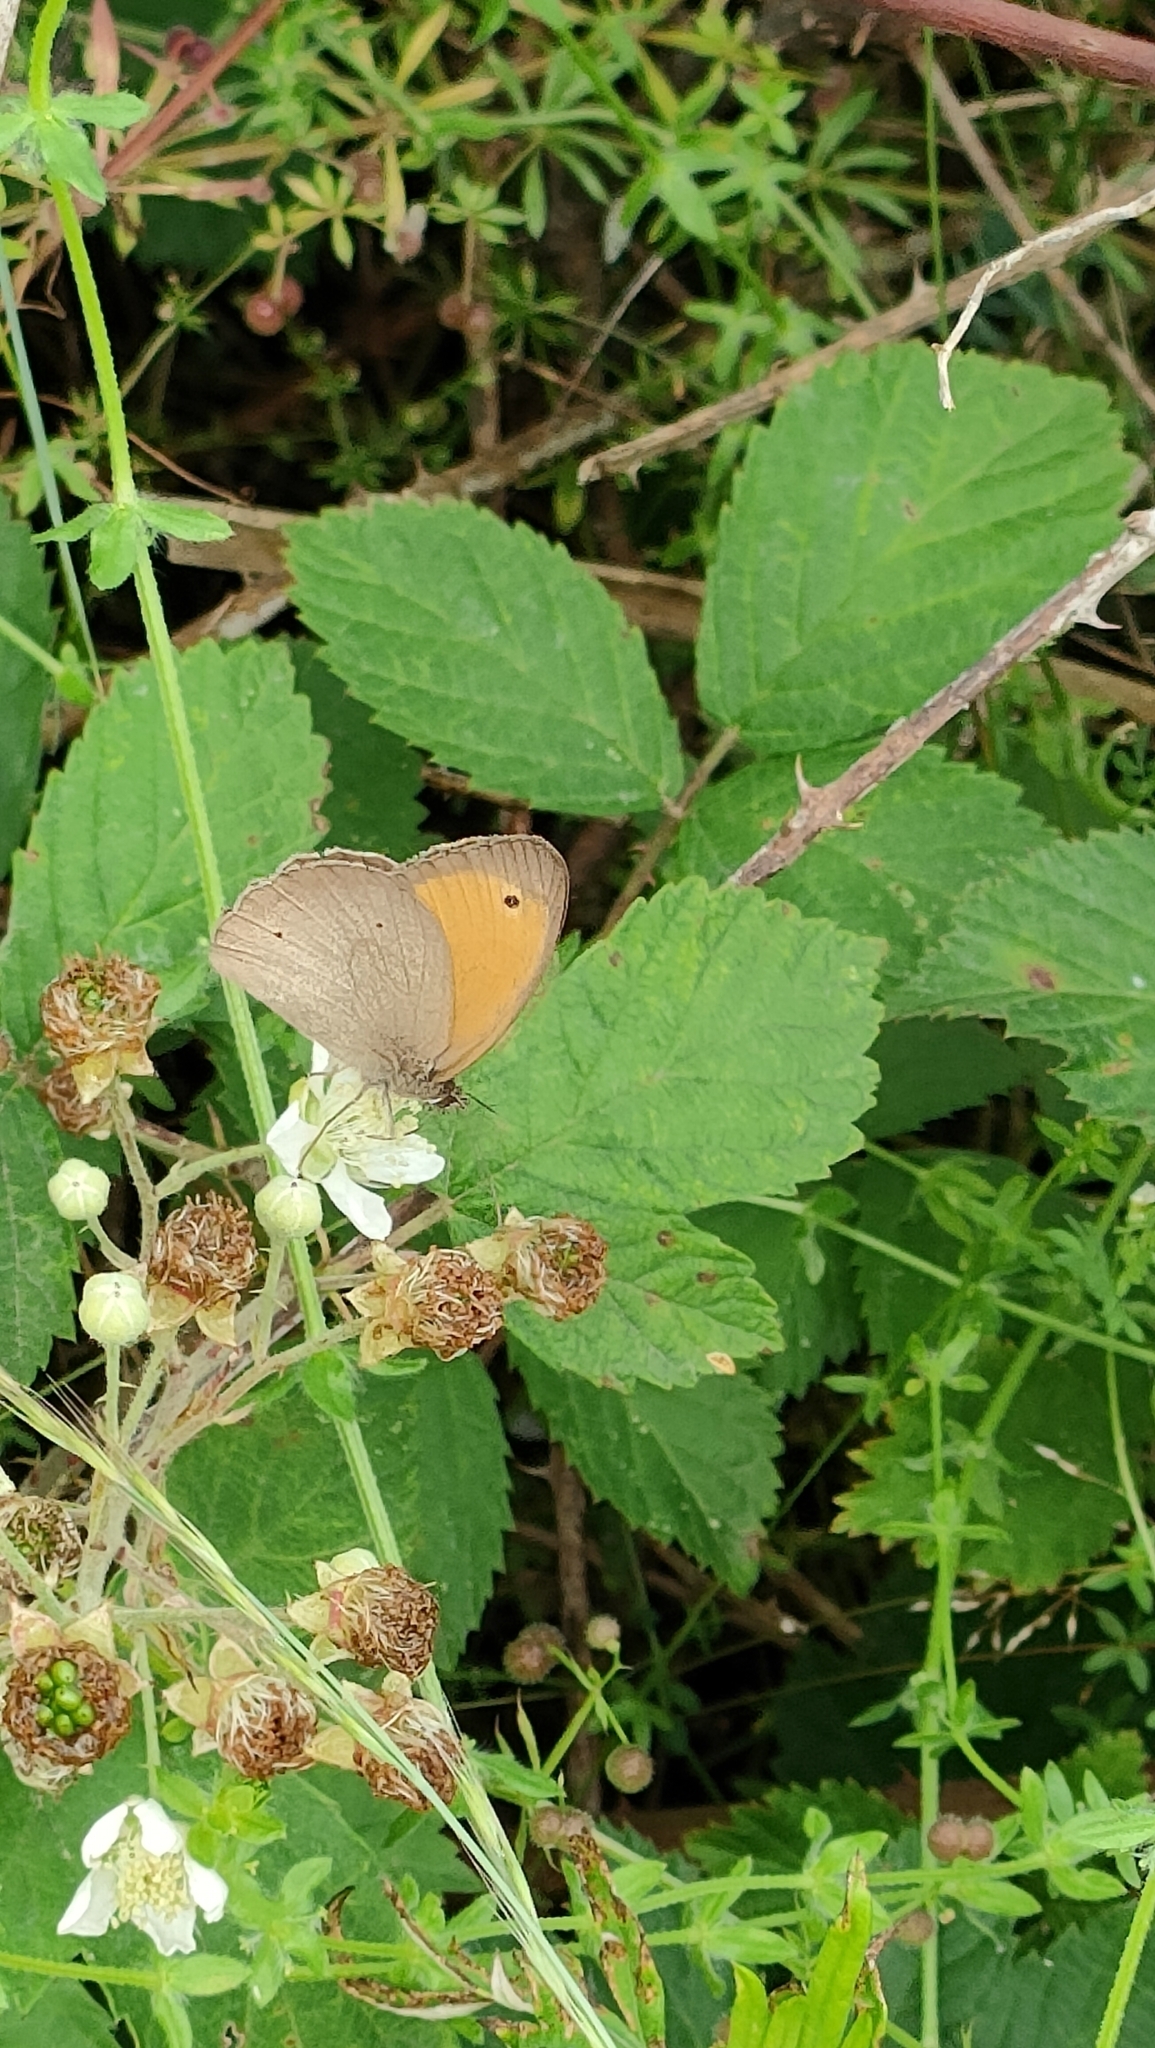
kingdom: Animalia
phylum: Arthropoda
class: Insecta
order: Lepidoptera
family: Nymphalidae
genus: Maniola
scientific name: Maniola jurtina
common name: Meadow brown
